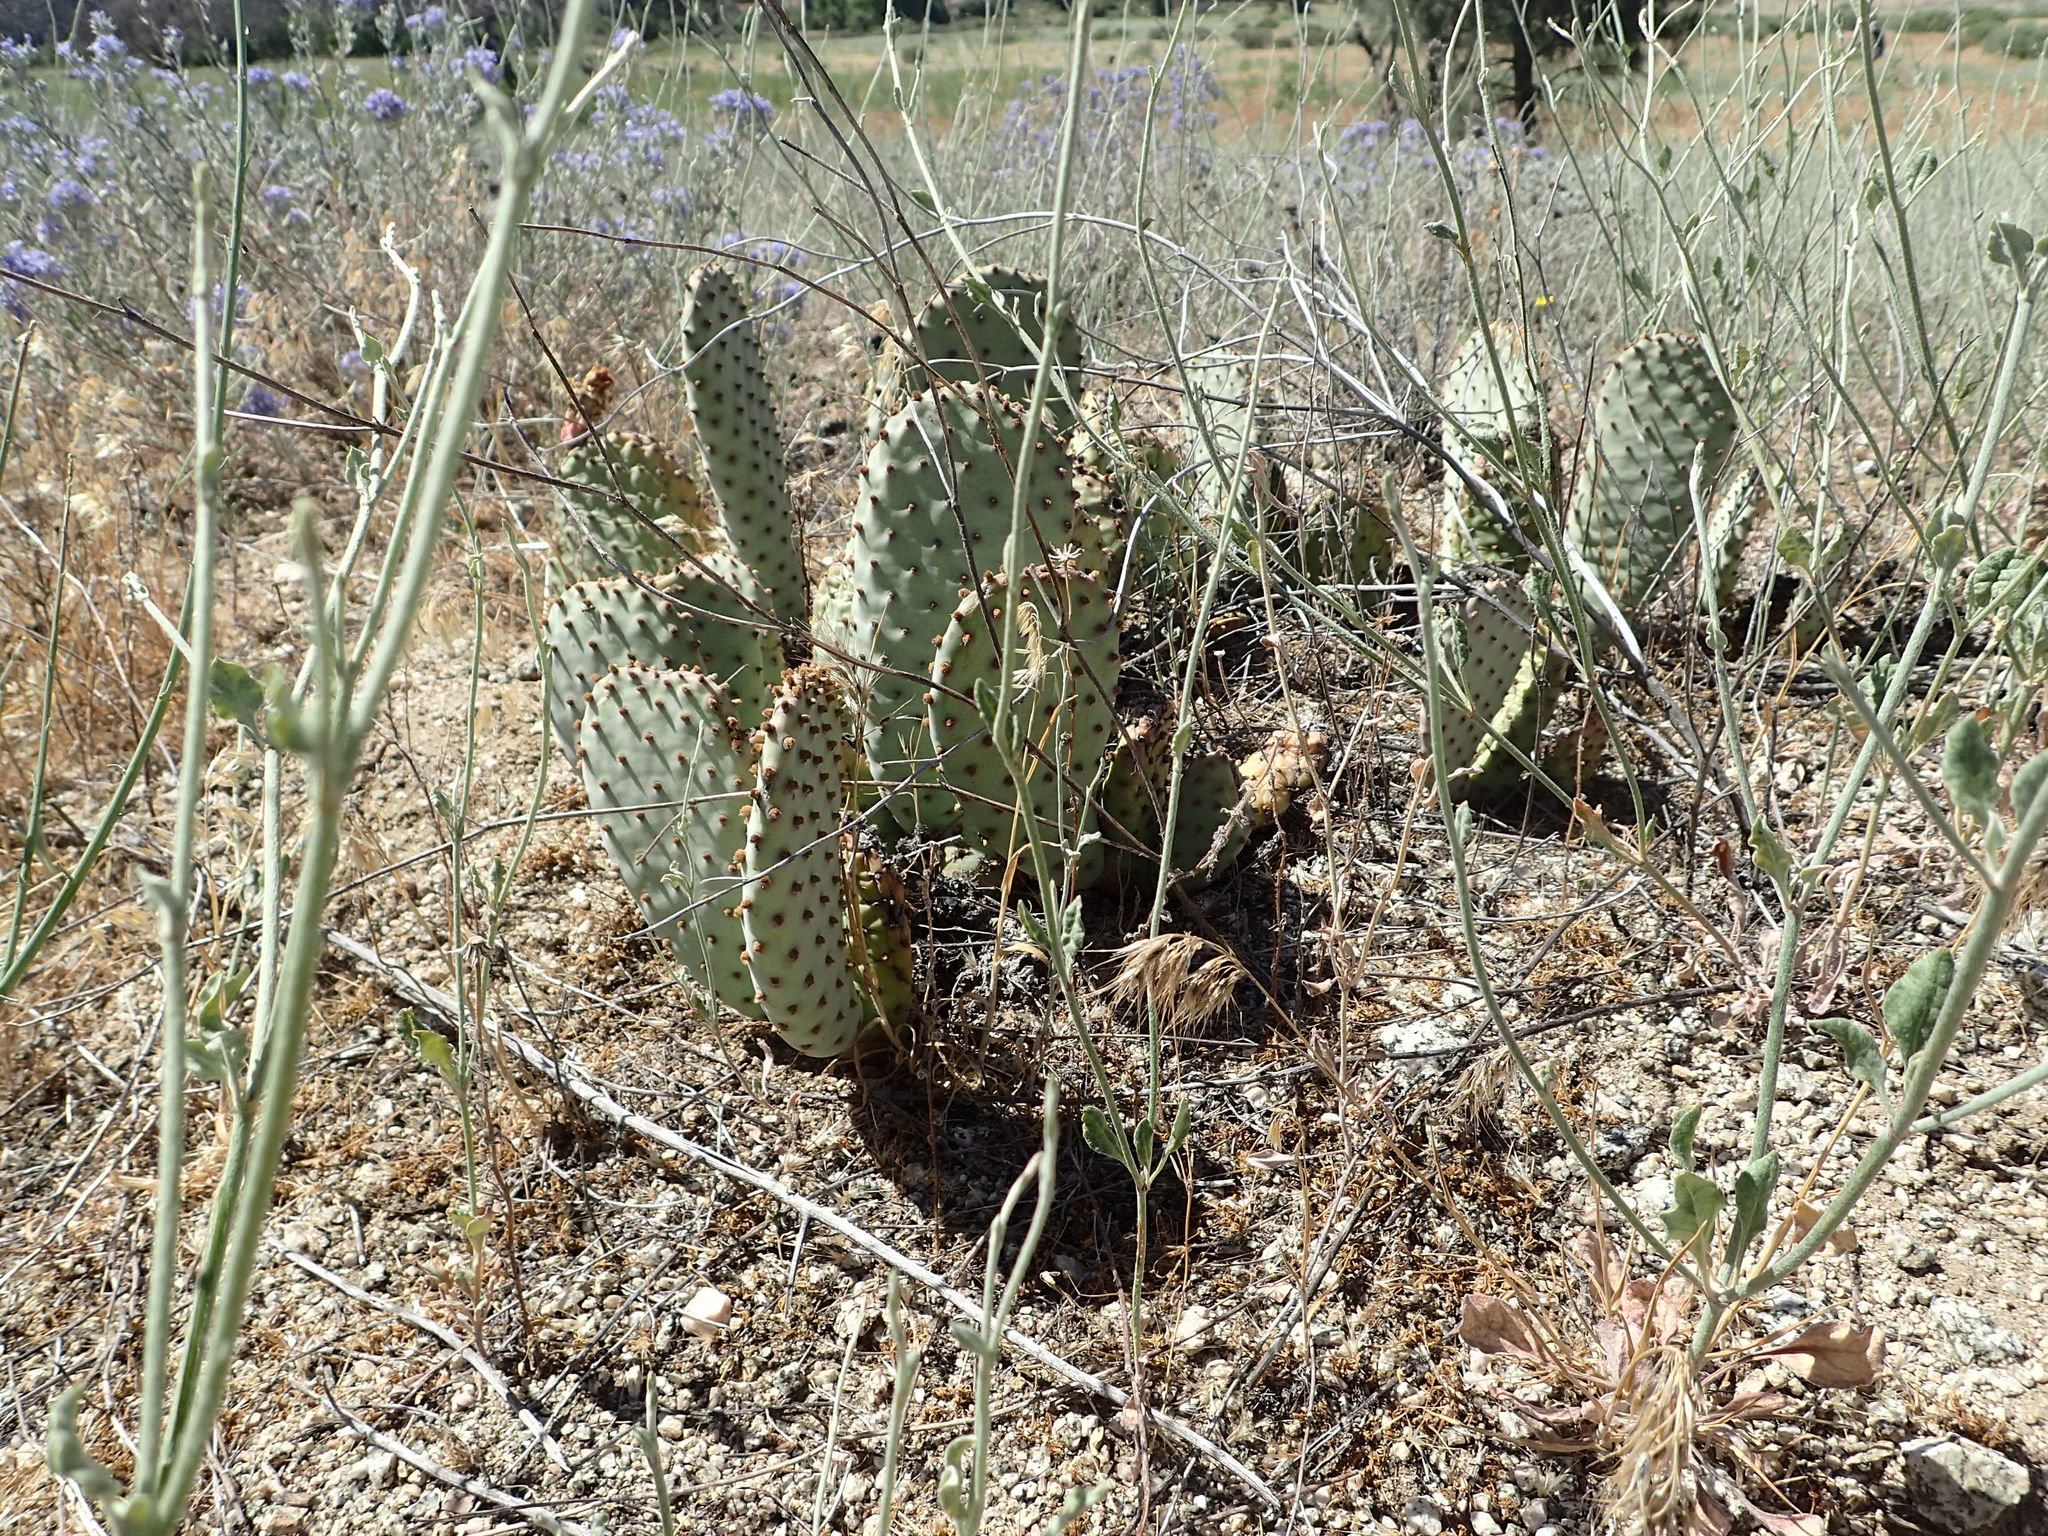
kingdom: Plantae
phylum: Tracheophyta
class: Magnoliopsida
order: Caryophyllales
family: Cactaceae
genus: Opuntia
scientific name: Opuntia basilaris
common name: Beavertail prickly-pear
